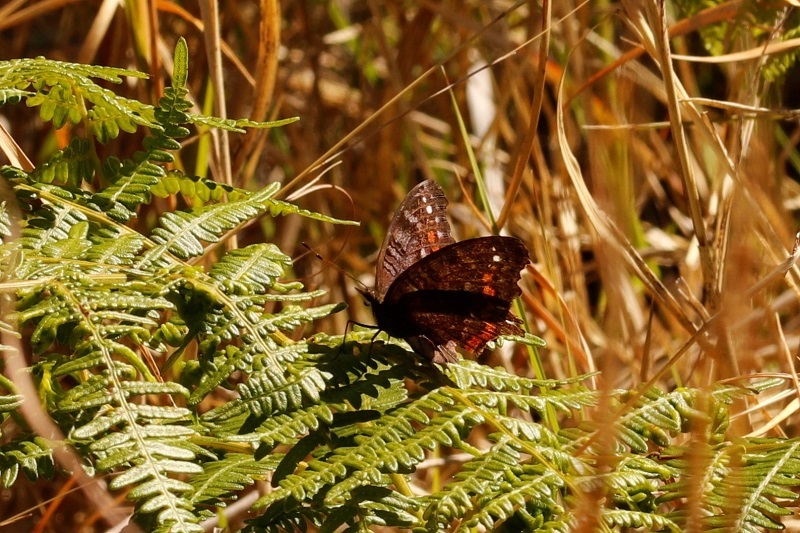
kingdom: Animalia
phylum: Arthropoda
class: Insecta
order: Lepidoptera
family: Nymphalidae
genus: Precis
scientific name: Precis octavia
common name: Gaudy commodore
